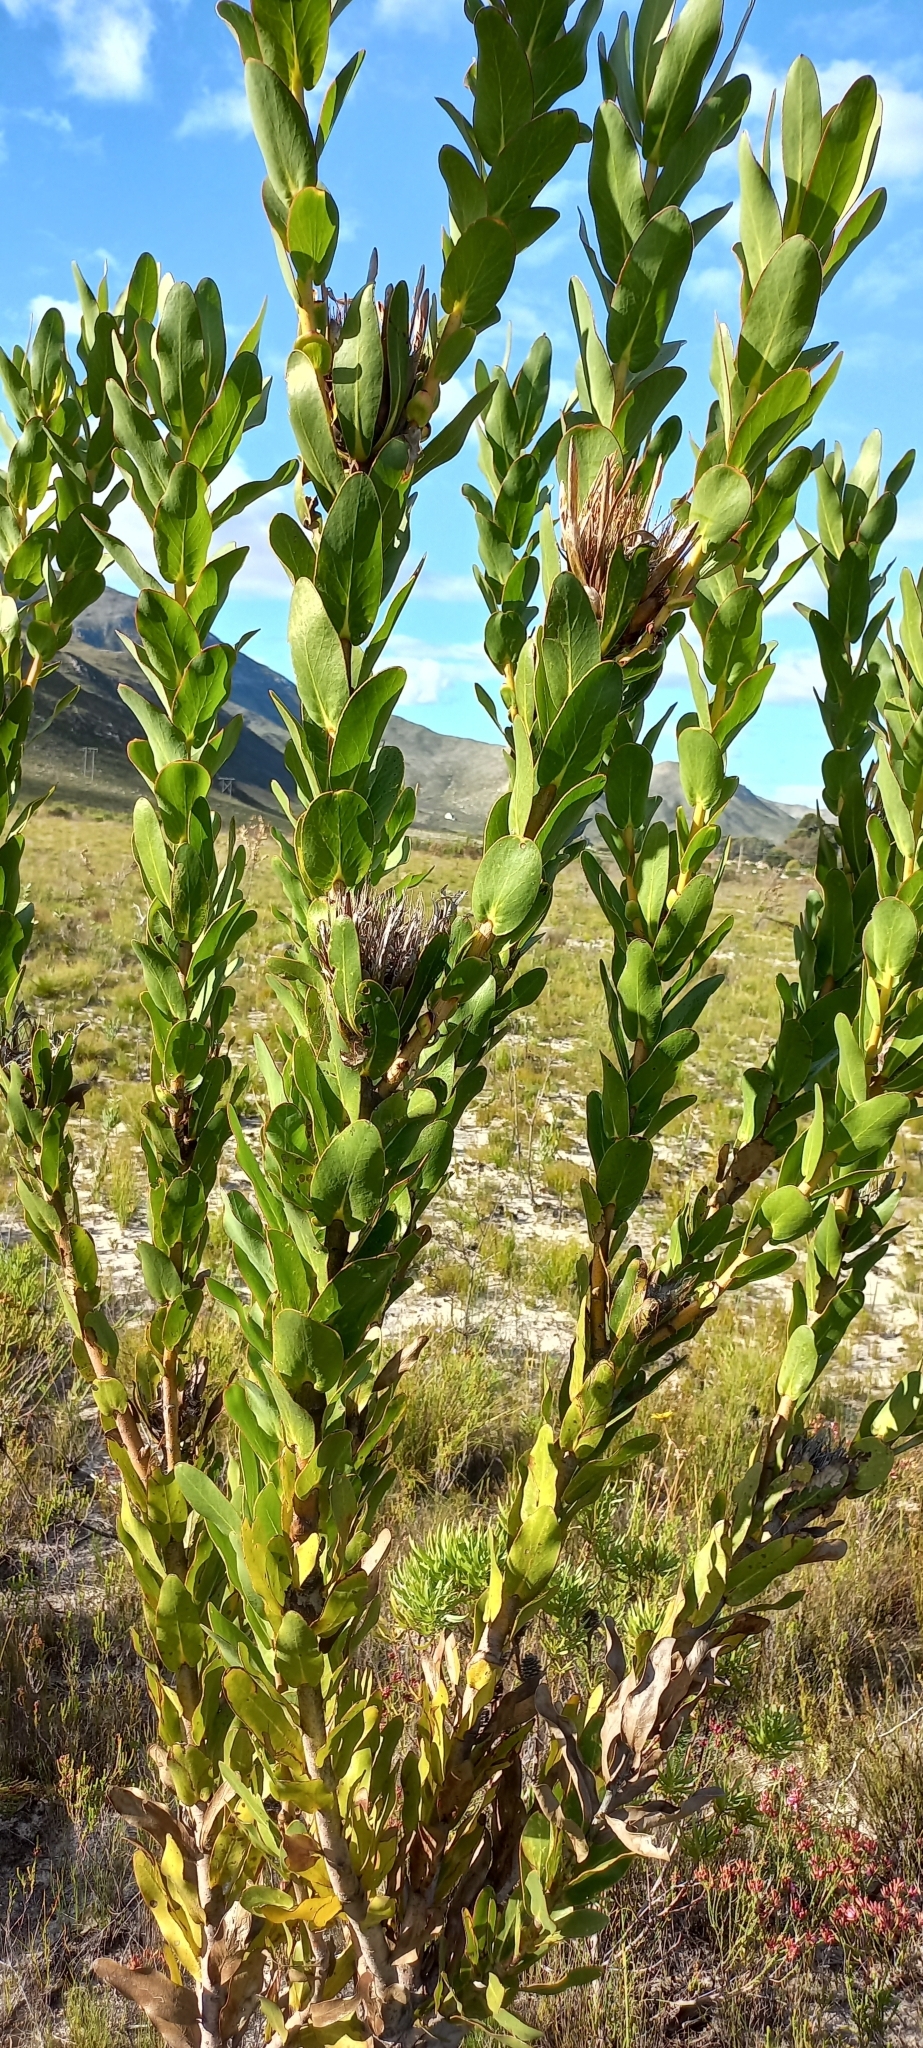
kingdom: Plantae
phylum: Tracheophyta
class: Magnoliopsida
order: Proteales
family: Proteaceae
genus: Protea
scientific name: Protea compacta
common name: Bot river protea
